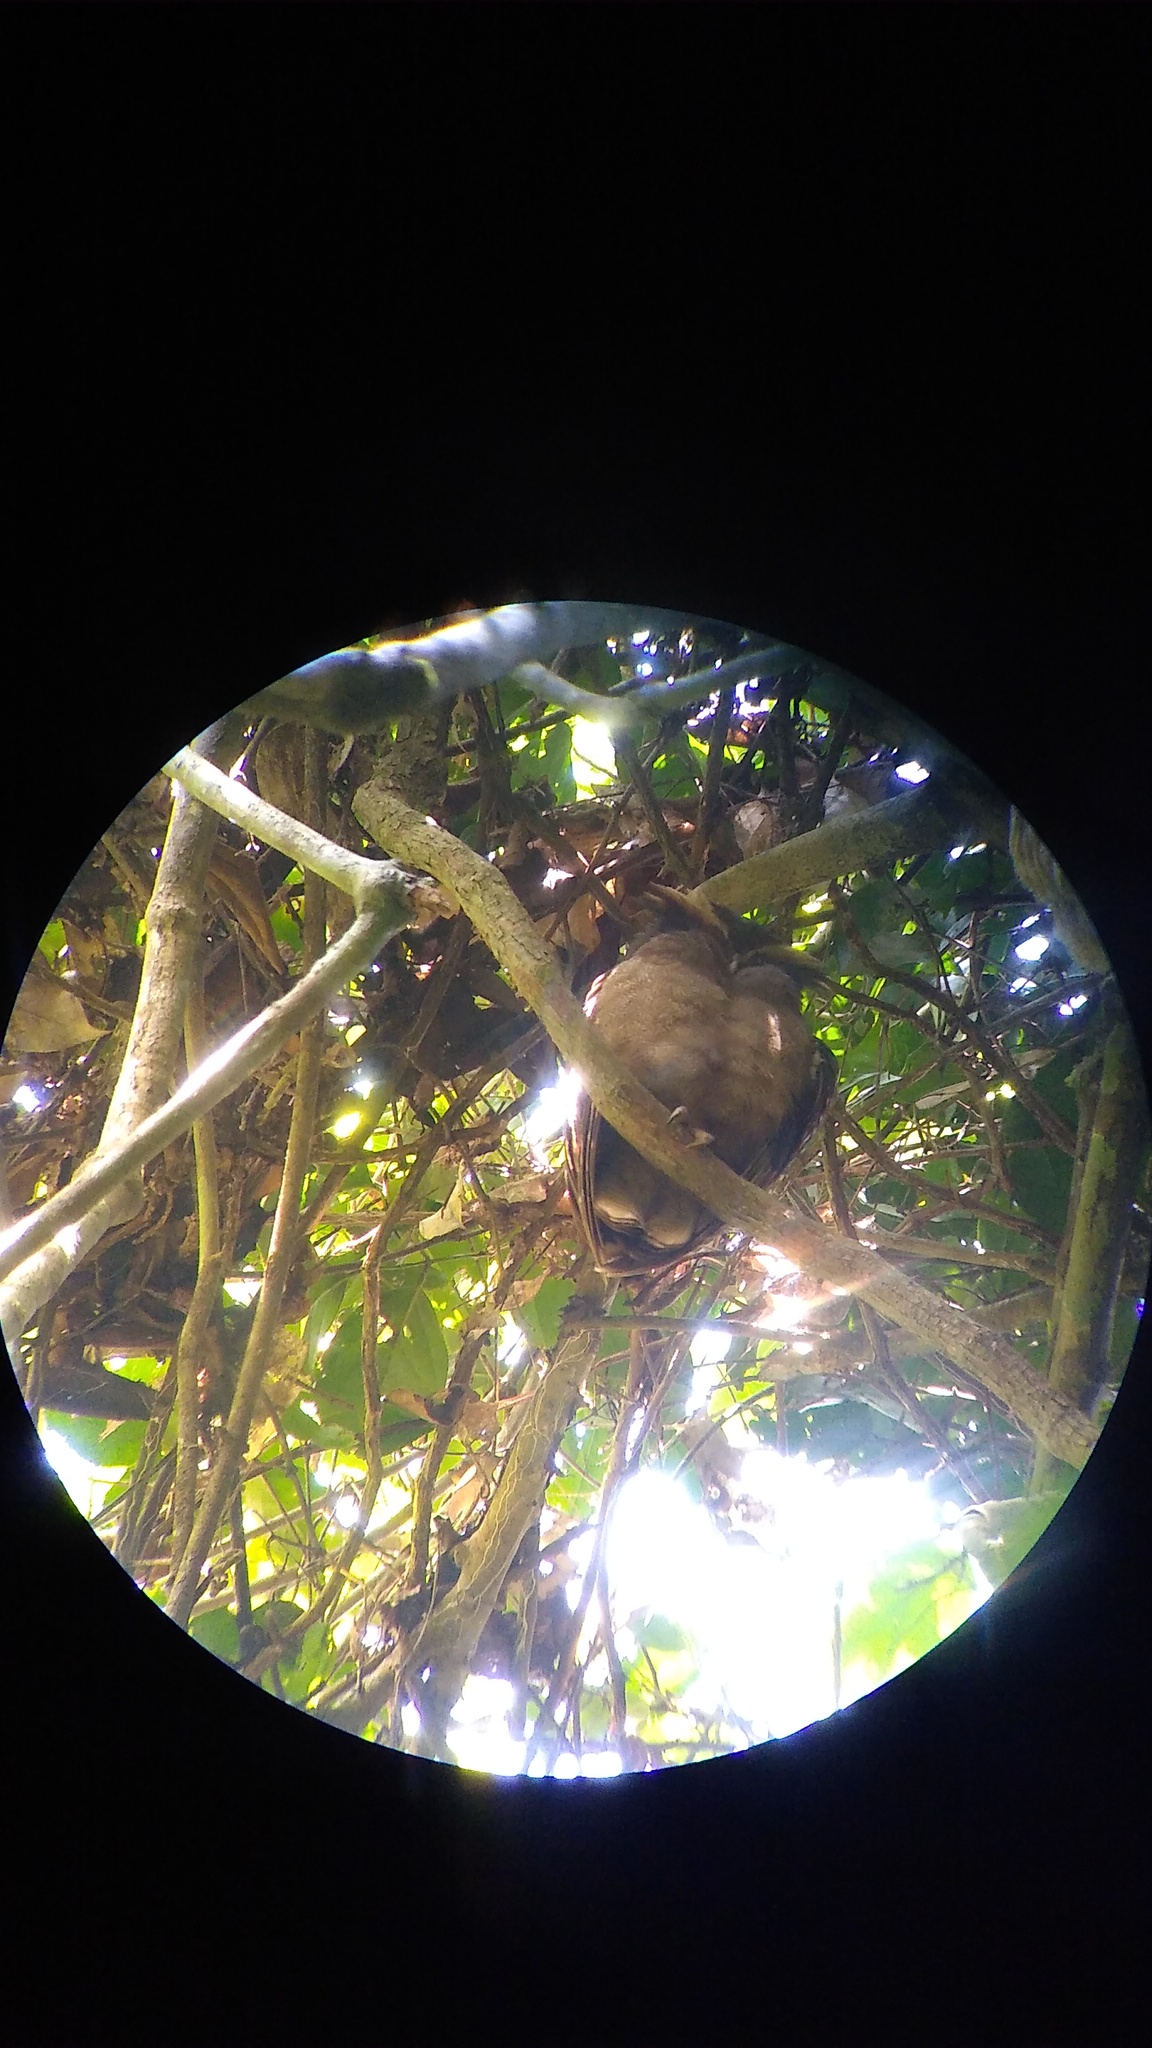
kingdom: Animalia
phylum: Chordata
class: Aves
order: Strigiformes
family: Strigidae
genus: Lophostrix
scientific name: Lophostrix cristata
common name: Crested owl
